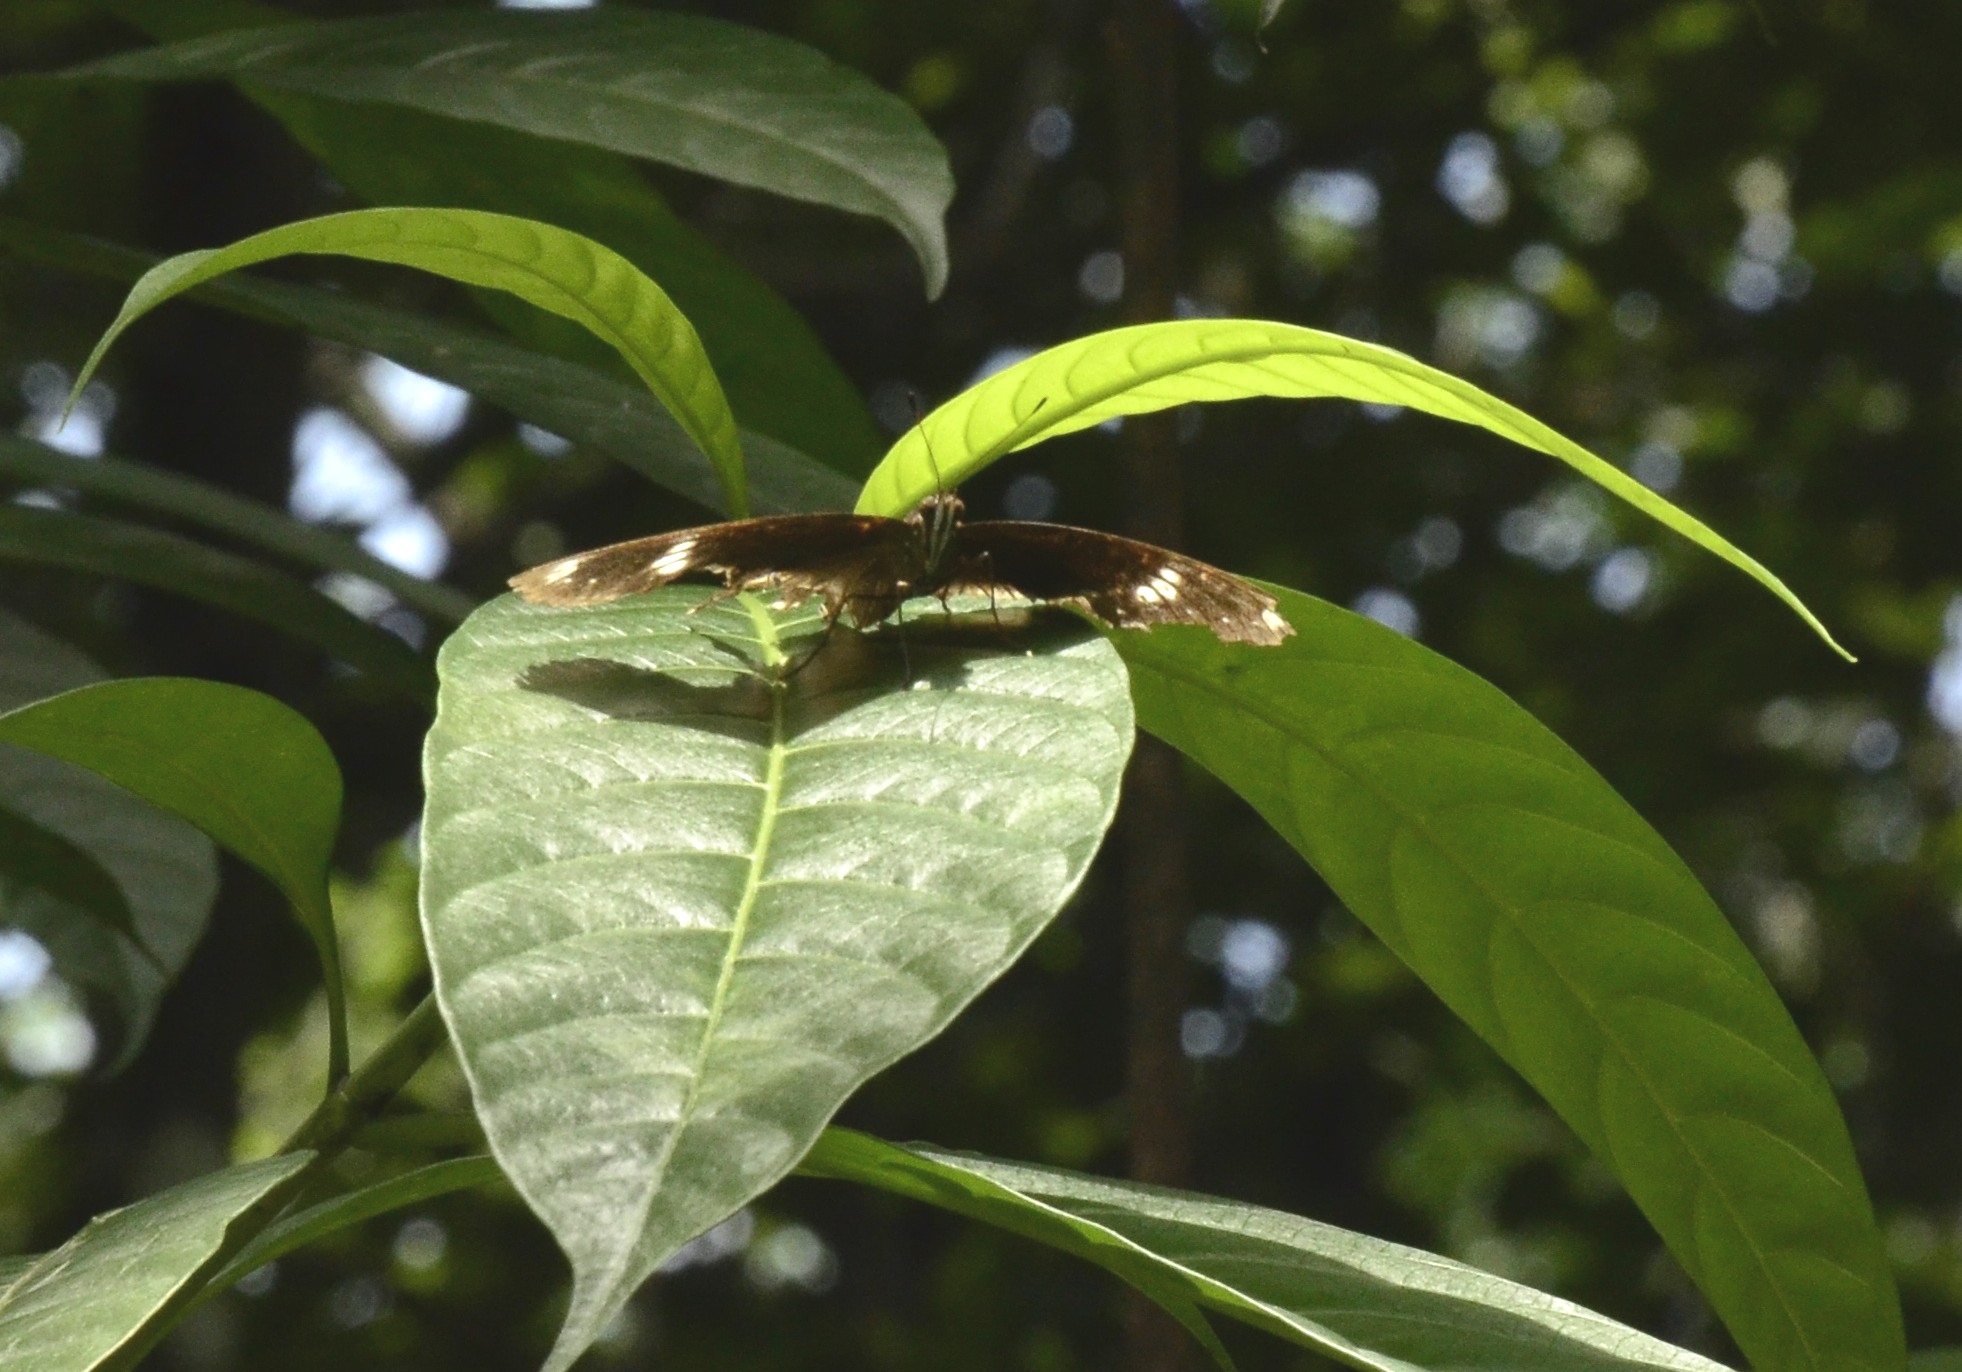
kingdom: Animalia
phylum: Arthropoda
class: Insecta
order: Lepidoptera
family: Nymphalidae
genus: Hypolimnas
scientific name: Hypolimnas bolina
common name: Great eggfly
